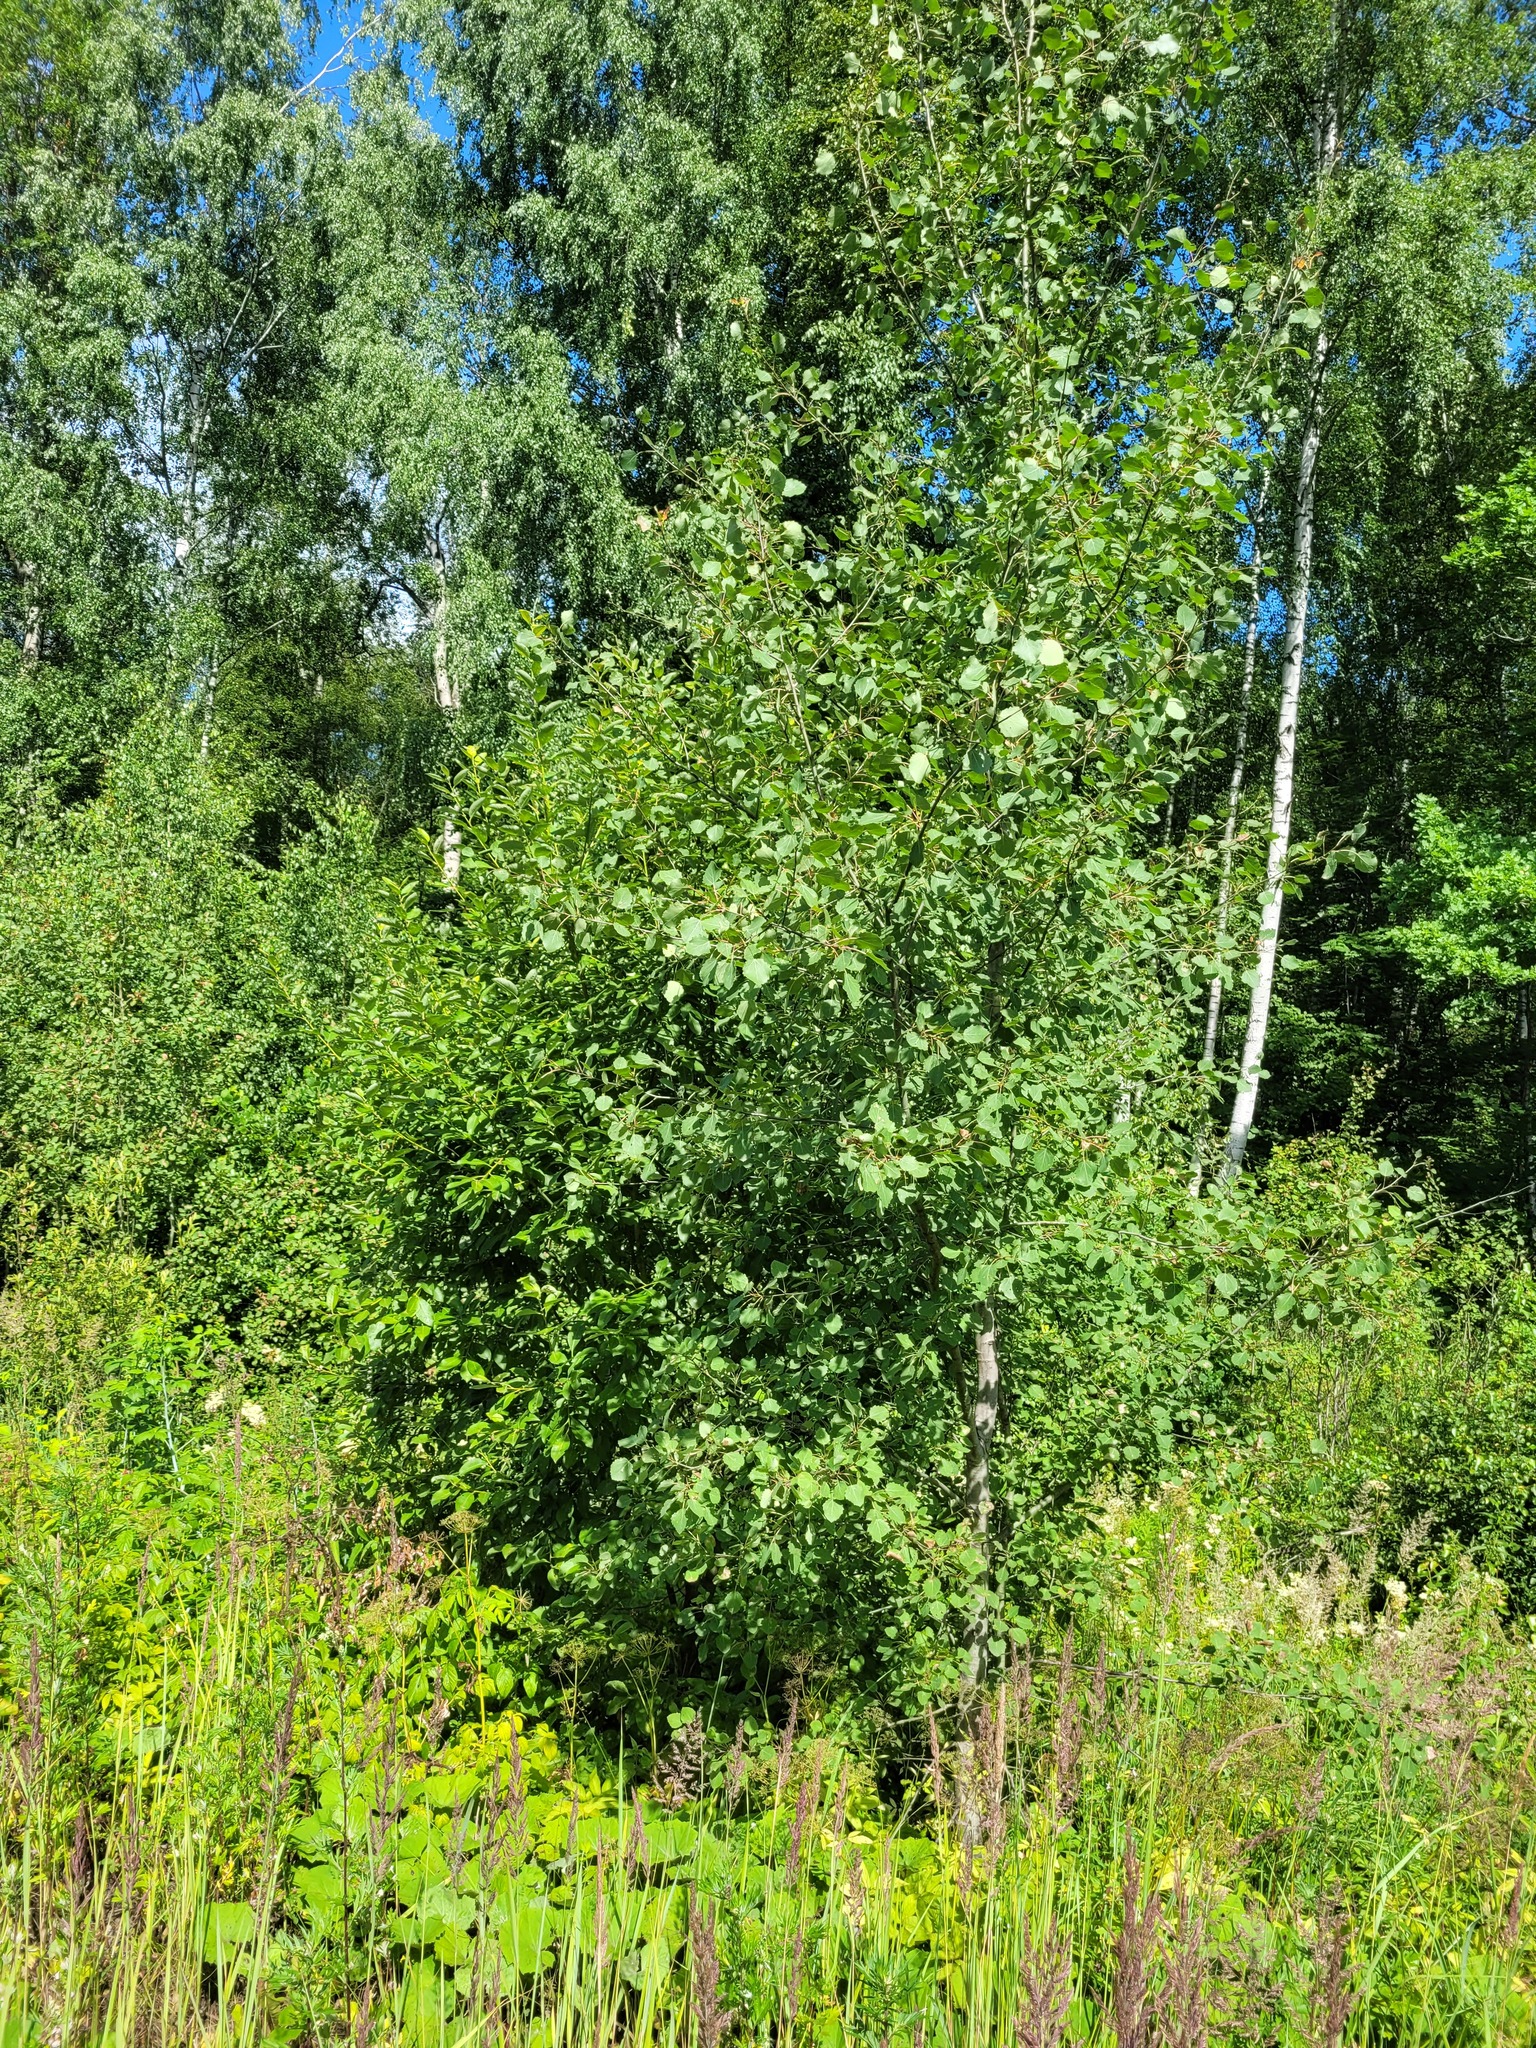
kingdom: Plantae
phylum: Tracheophyta
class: Magnoliopsida
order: Malpighiales
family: Salicaceae
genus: Populus
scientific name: Populus tremula
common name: European aspen
